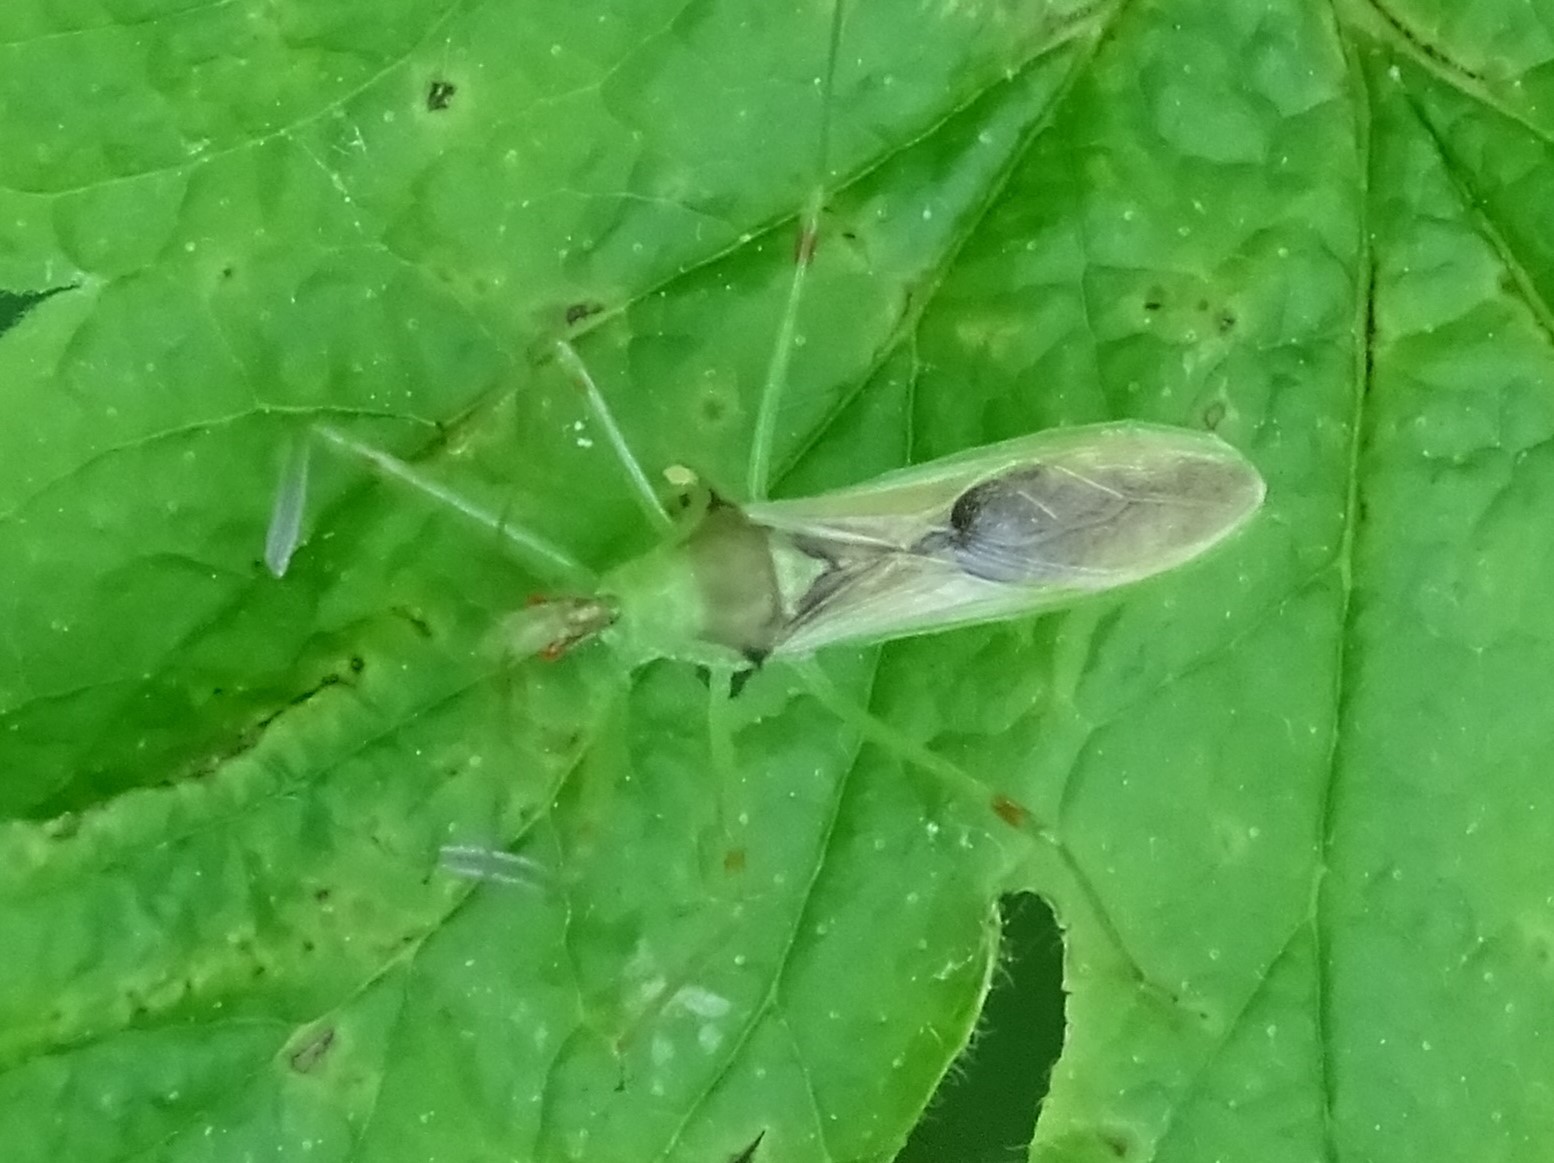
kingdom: Animalia
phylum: Arthropoda
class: Insecta
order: Hemiptera
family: Reduviidae
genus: Zelus
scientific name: Zelus luridus
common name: Pale green assassin bug
